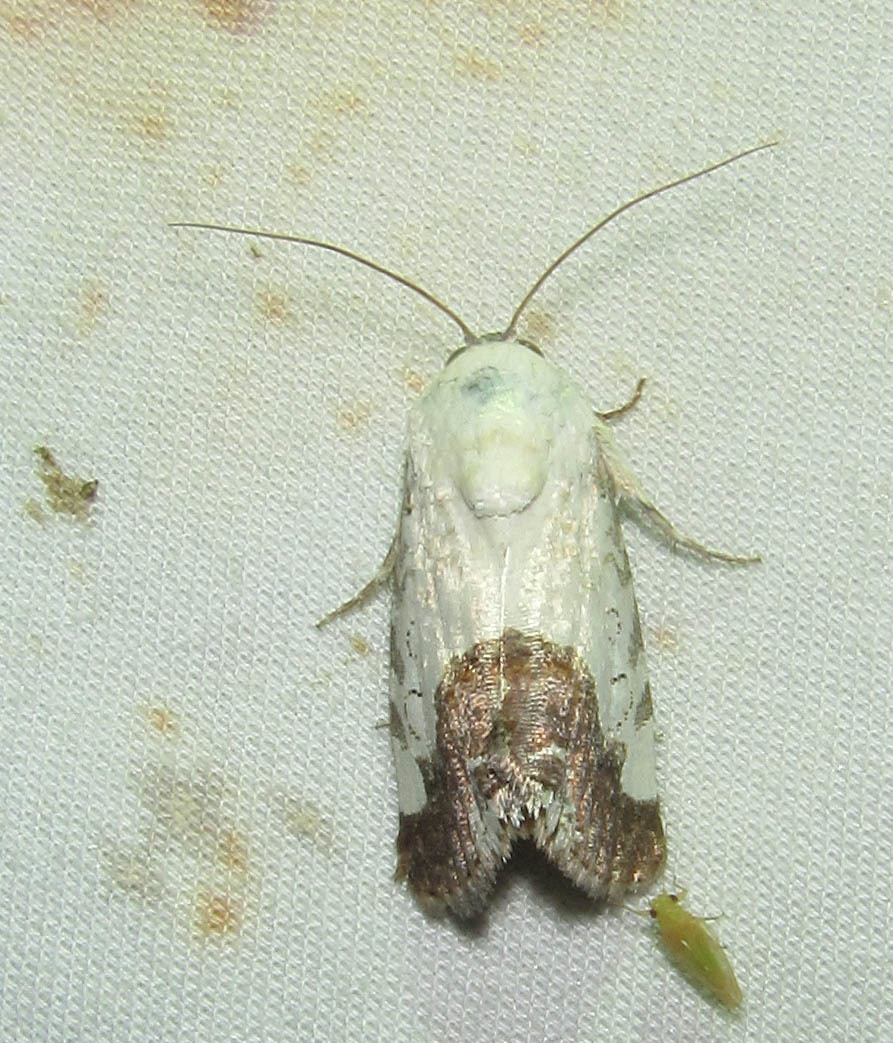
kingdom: Animalia
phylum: Arthropoda
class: Insecta
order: Lepidoptera
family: Noctuidae
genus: Acontia
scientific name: Acontia discoidea
